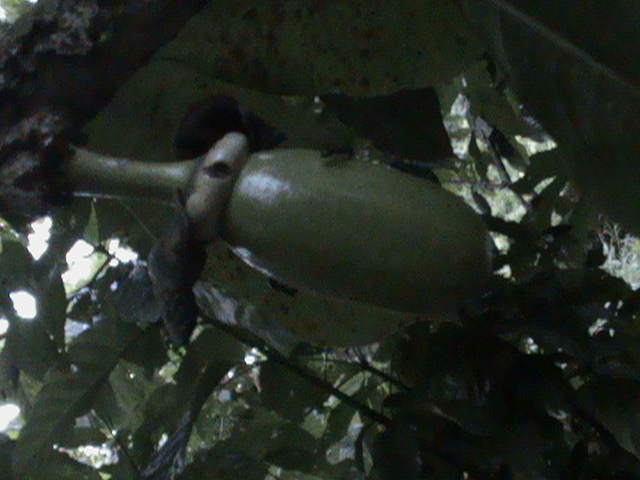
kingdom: Plantae
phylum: Tracheophyta
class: Magnoliopsida
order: Lamiales
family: Bignoniaceae
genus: Crescentia
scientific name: Crescentia cujete
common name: Calabash
